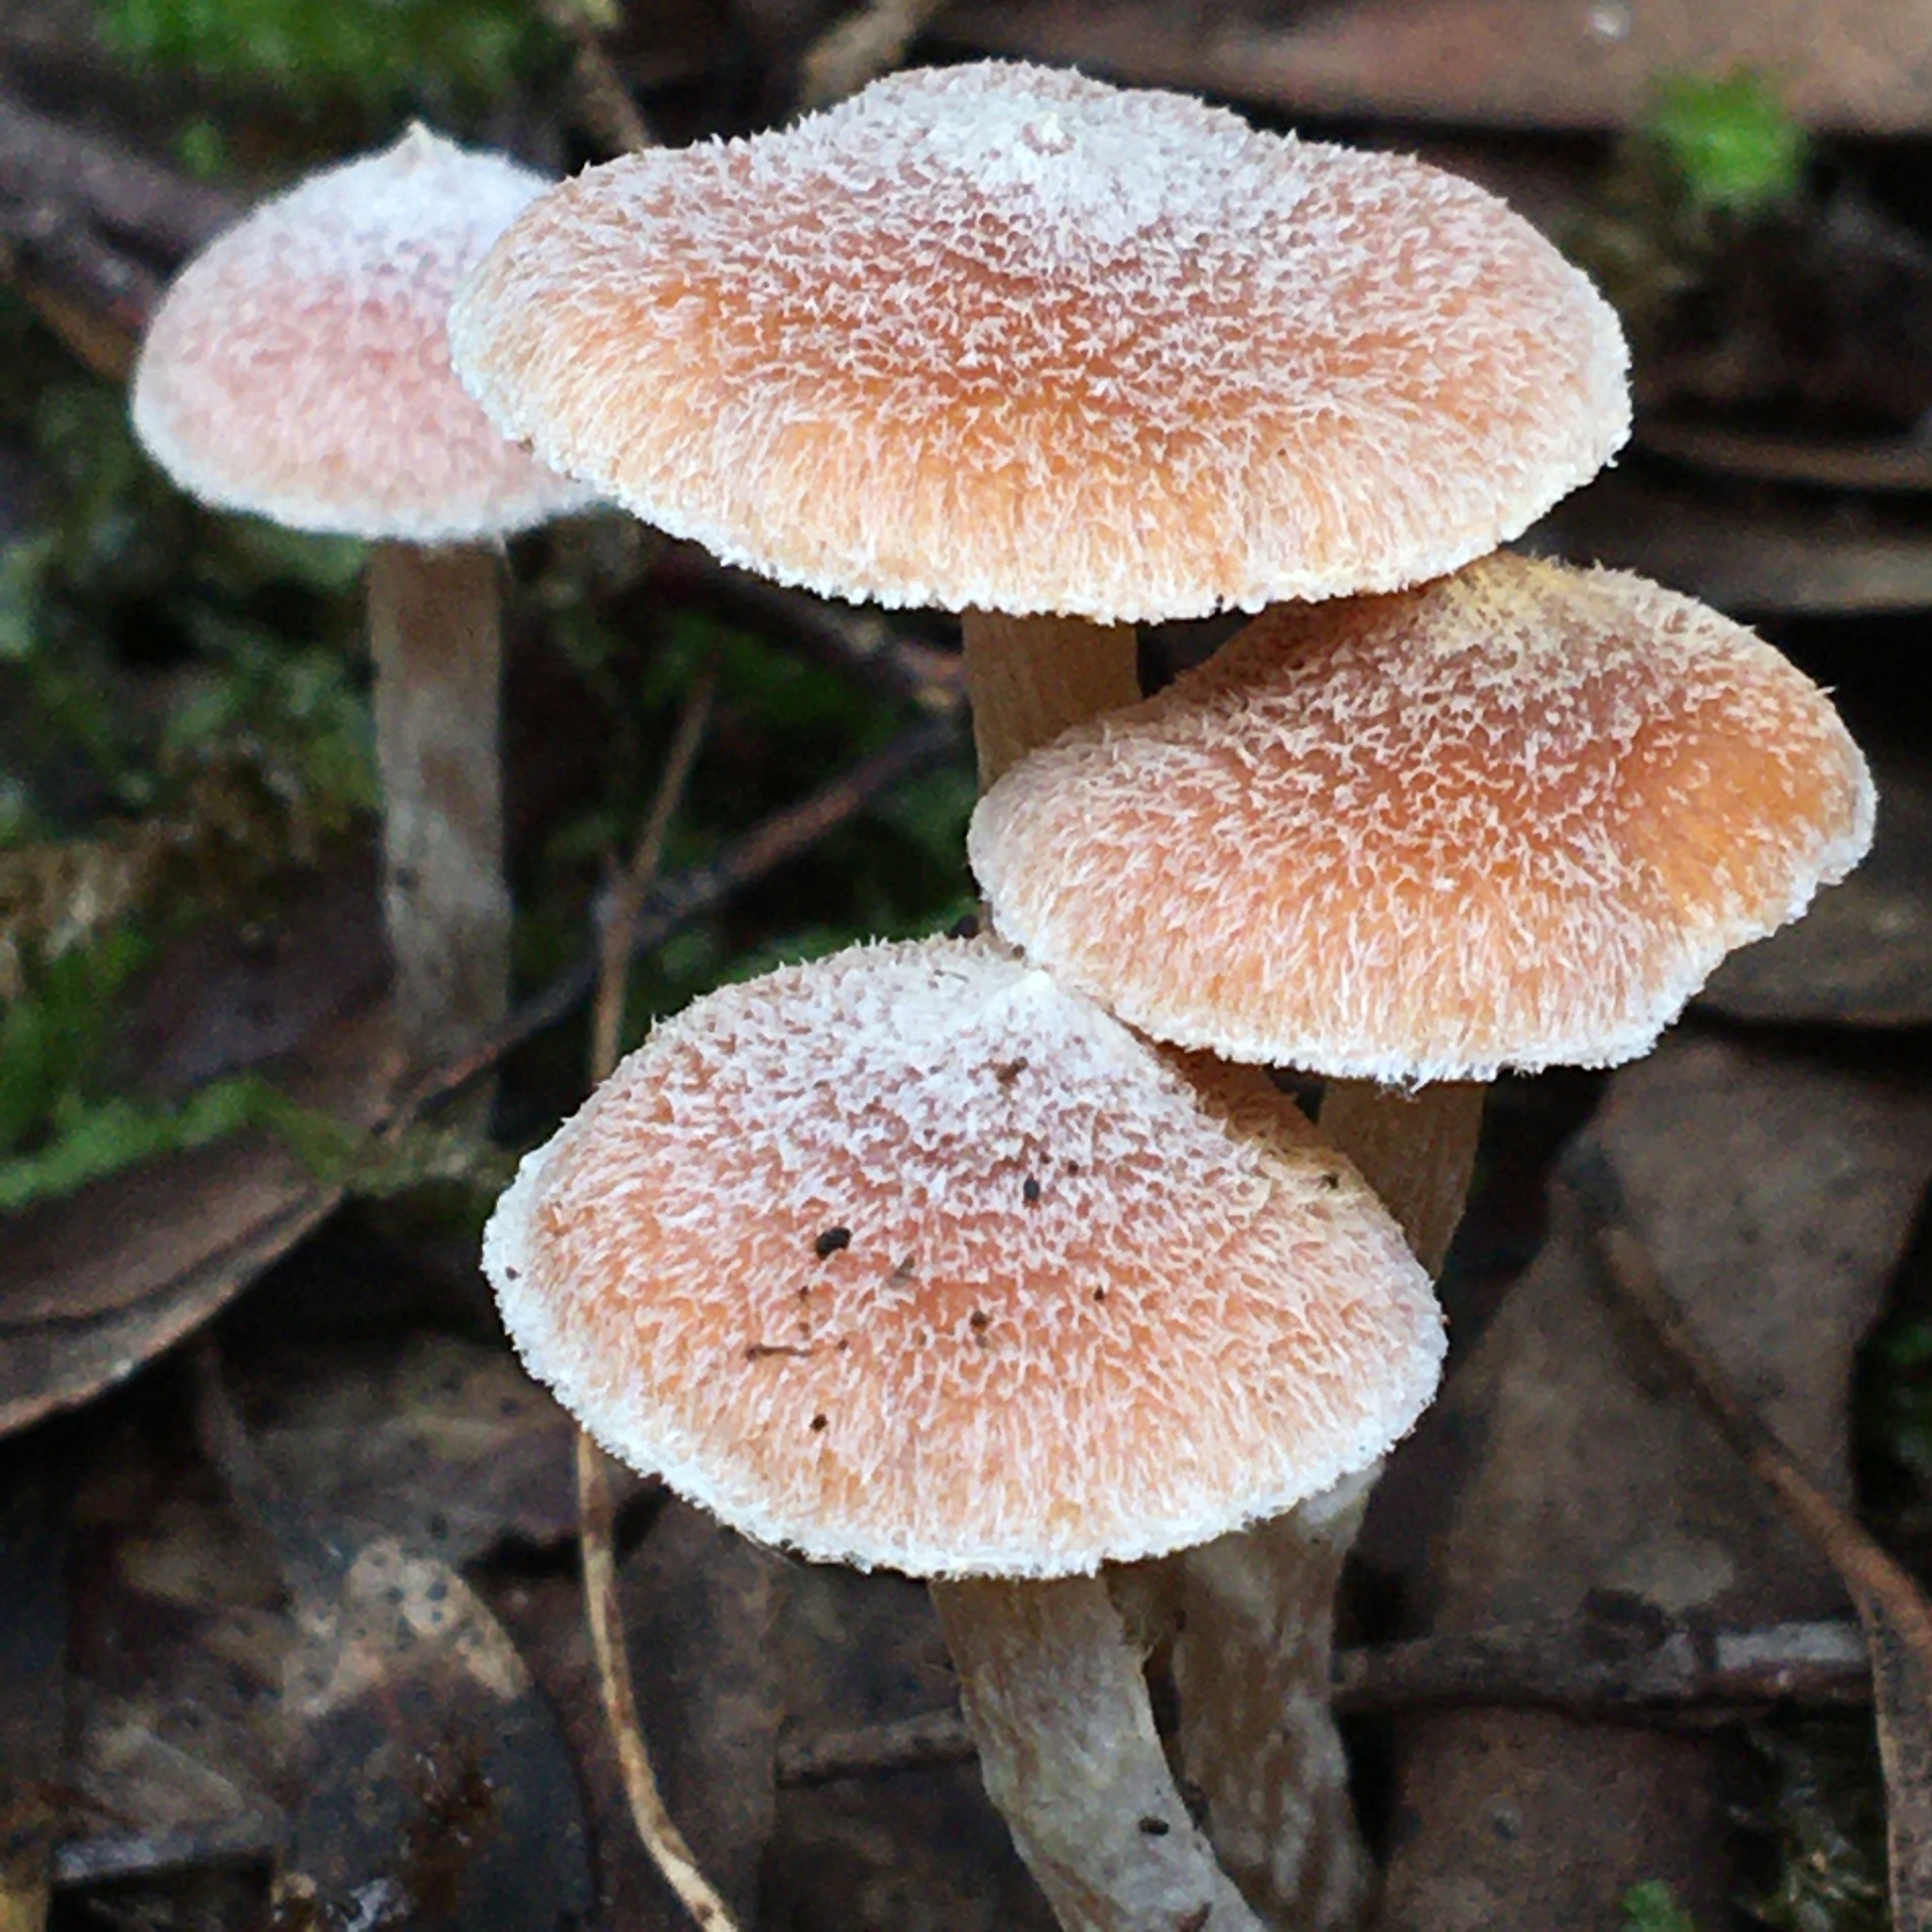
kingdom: Fungi
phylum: Basidiomycota
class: Agaricomycetes
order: Agaricales
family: Inocybaceae
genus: Inocybe
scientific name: Inocybe austrofibrillosa
